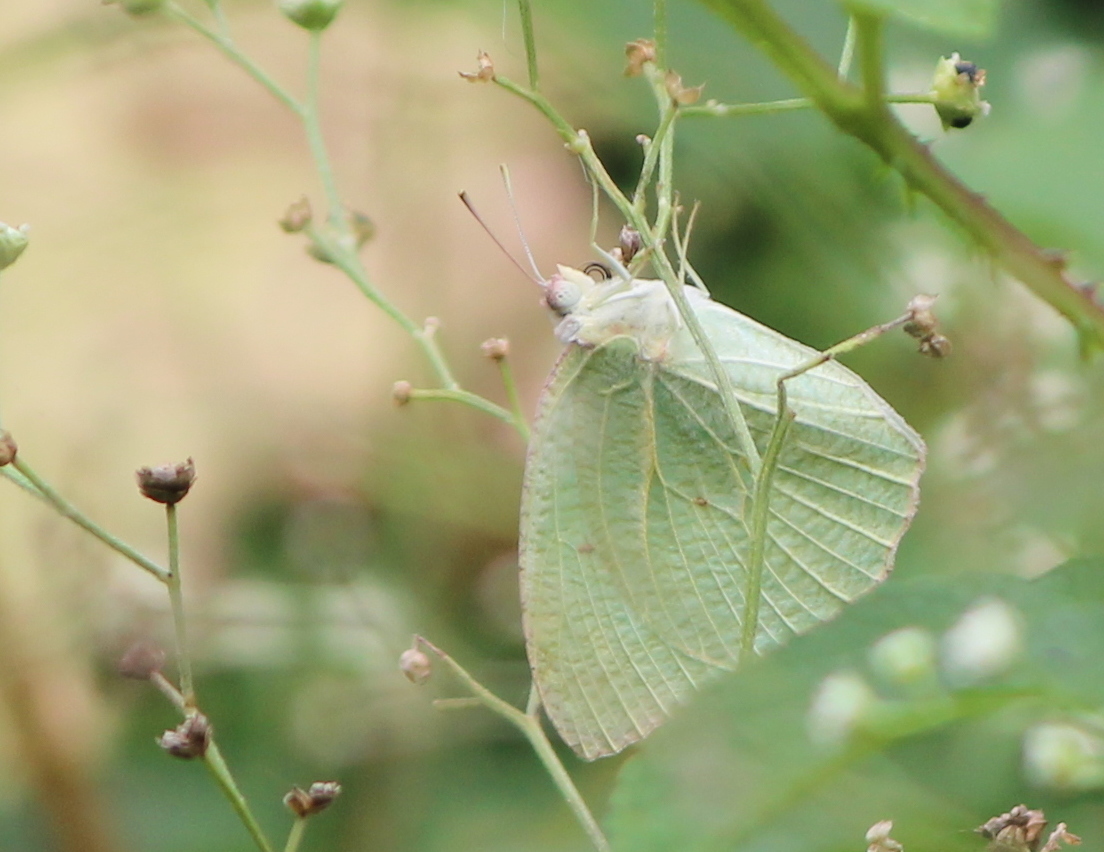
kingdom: Animalia
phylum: Arthropoda
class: Insecta
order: Lepidoptera
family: Pieridae
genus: Catopsilia
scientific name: Catopsilia pyranthe
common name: Mottled emigrant
